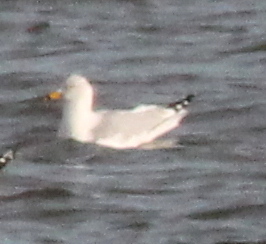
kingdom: Animalia
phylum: Chordata
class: Aves
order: Charadriiformes
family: Laridae
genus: Larus
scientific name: Larus delawarensis
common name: Ring-billed gull
